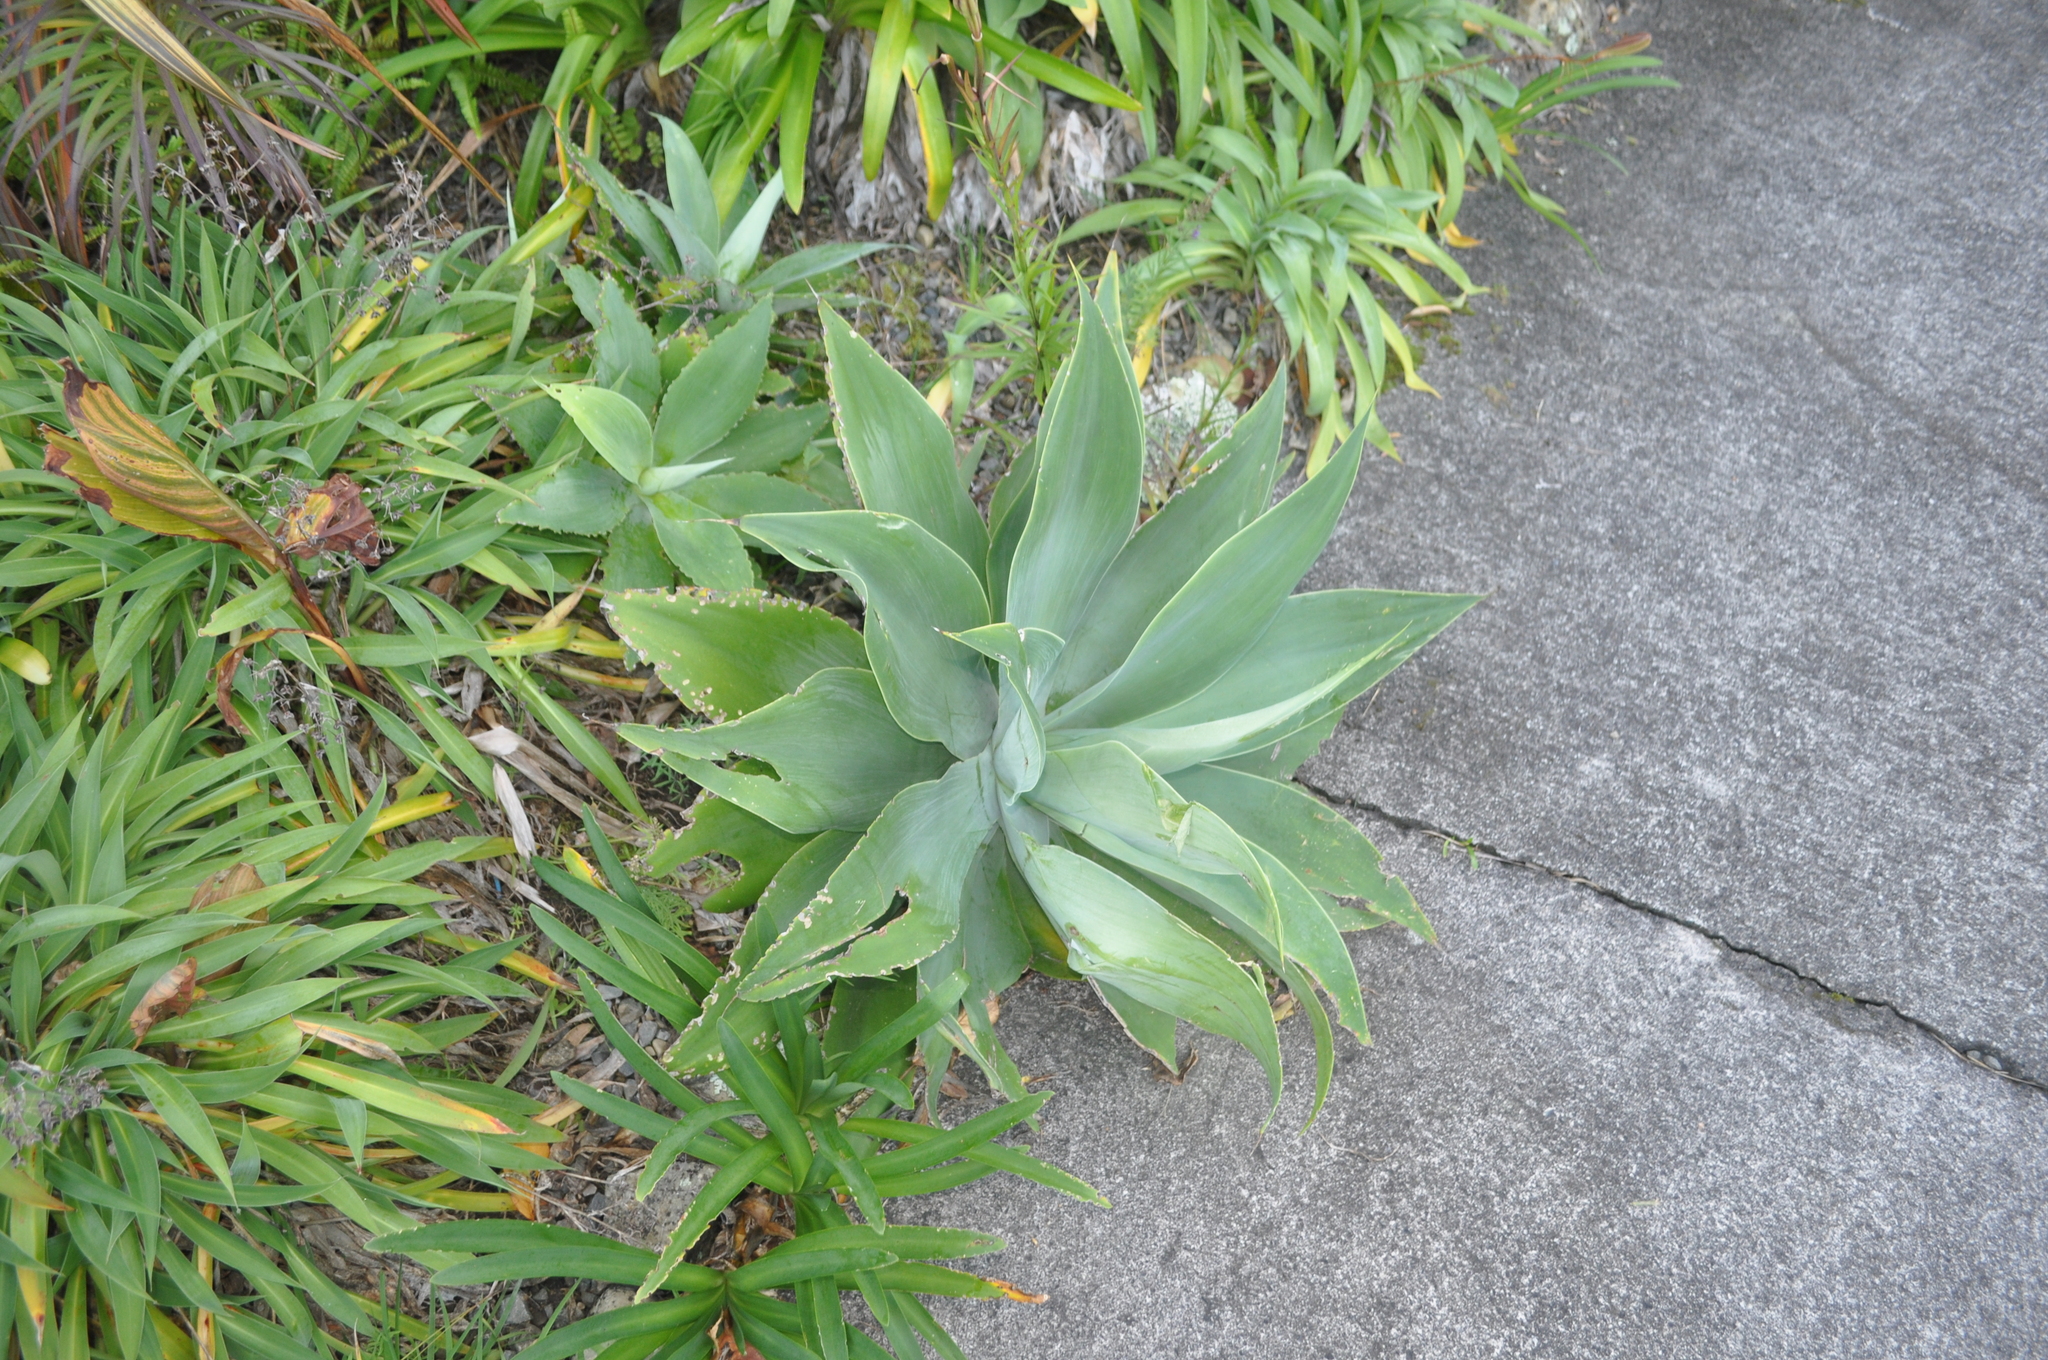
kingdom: Plantae
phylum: Tracheophyta
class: Liliopsida
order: Asparagales
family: Asparagaceae
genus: Agave
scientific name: Agave attenuata
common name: Fox tail agave
